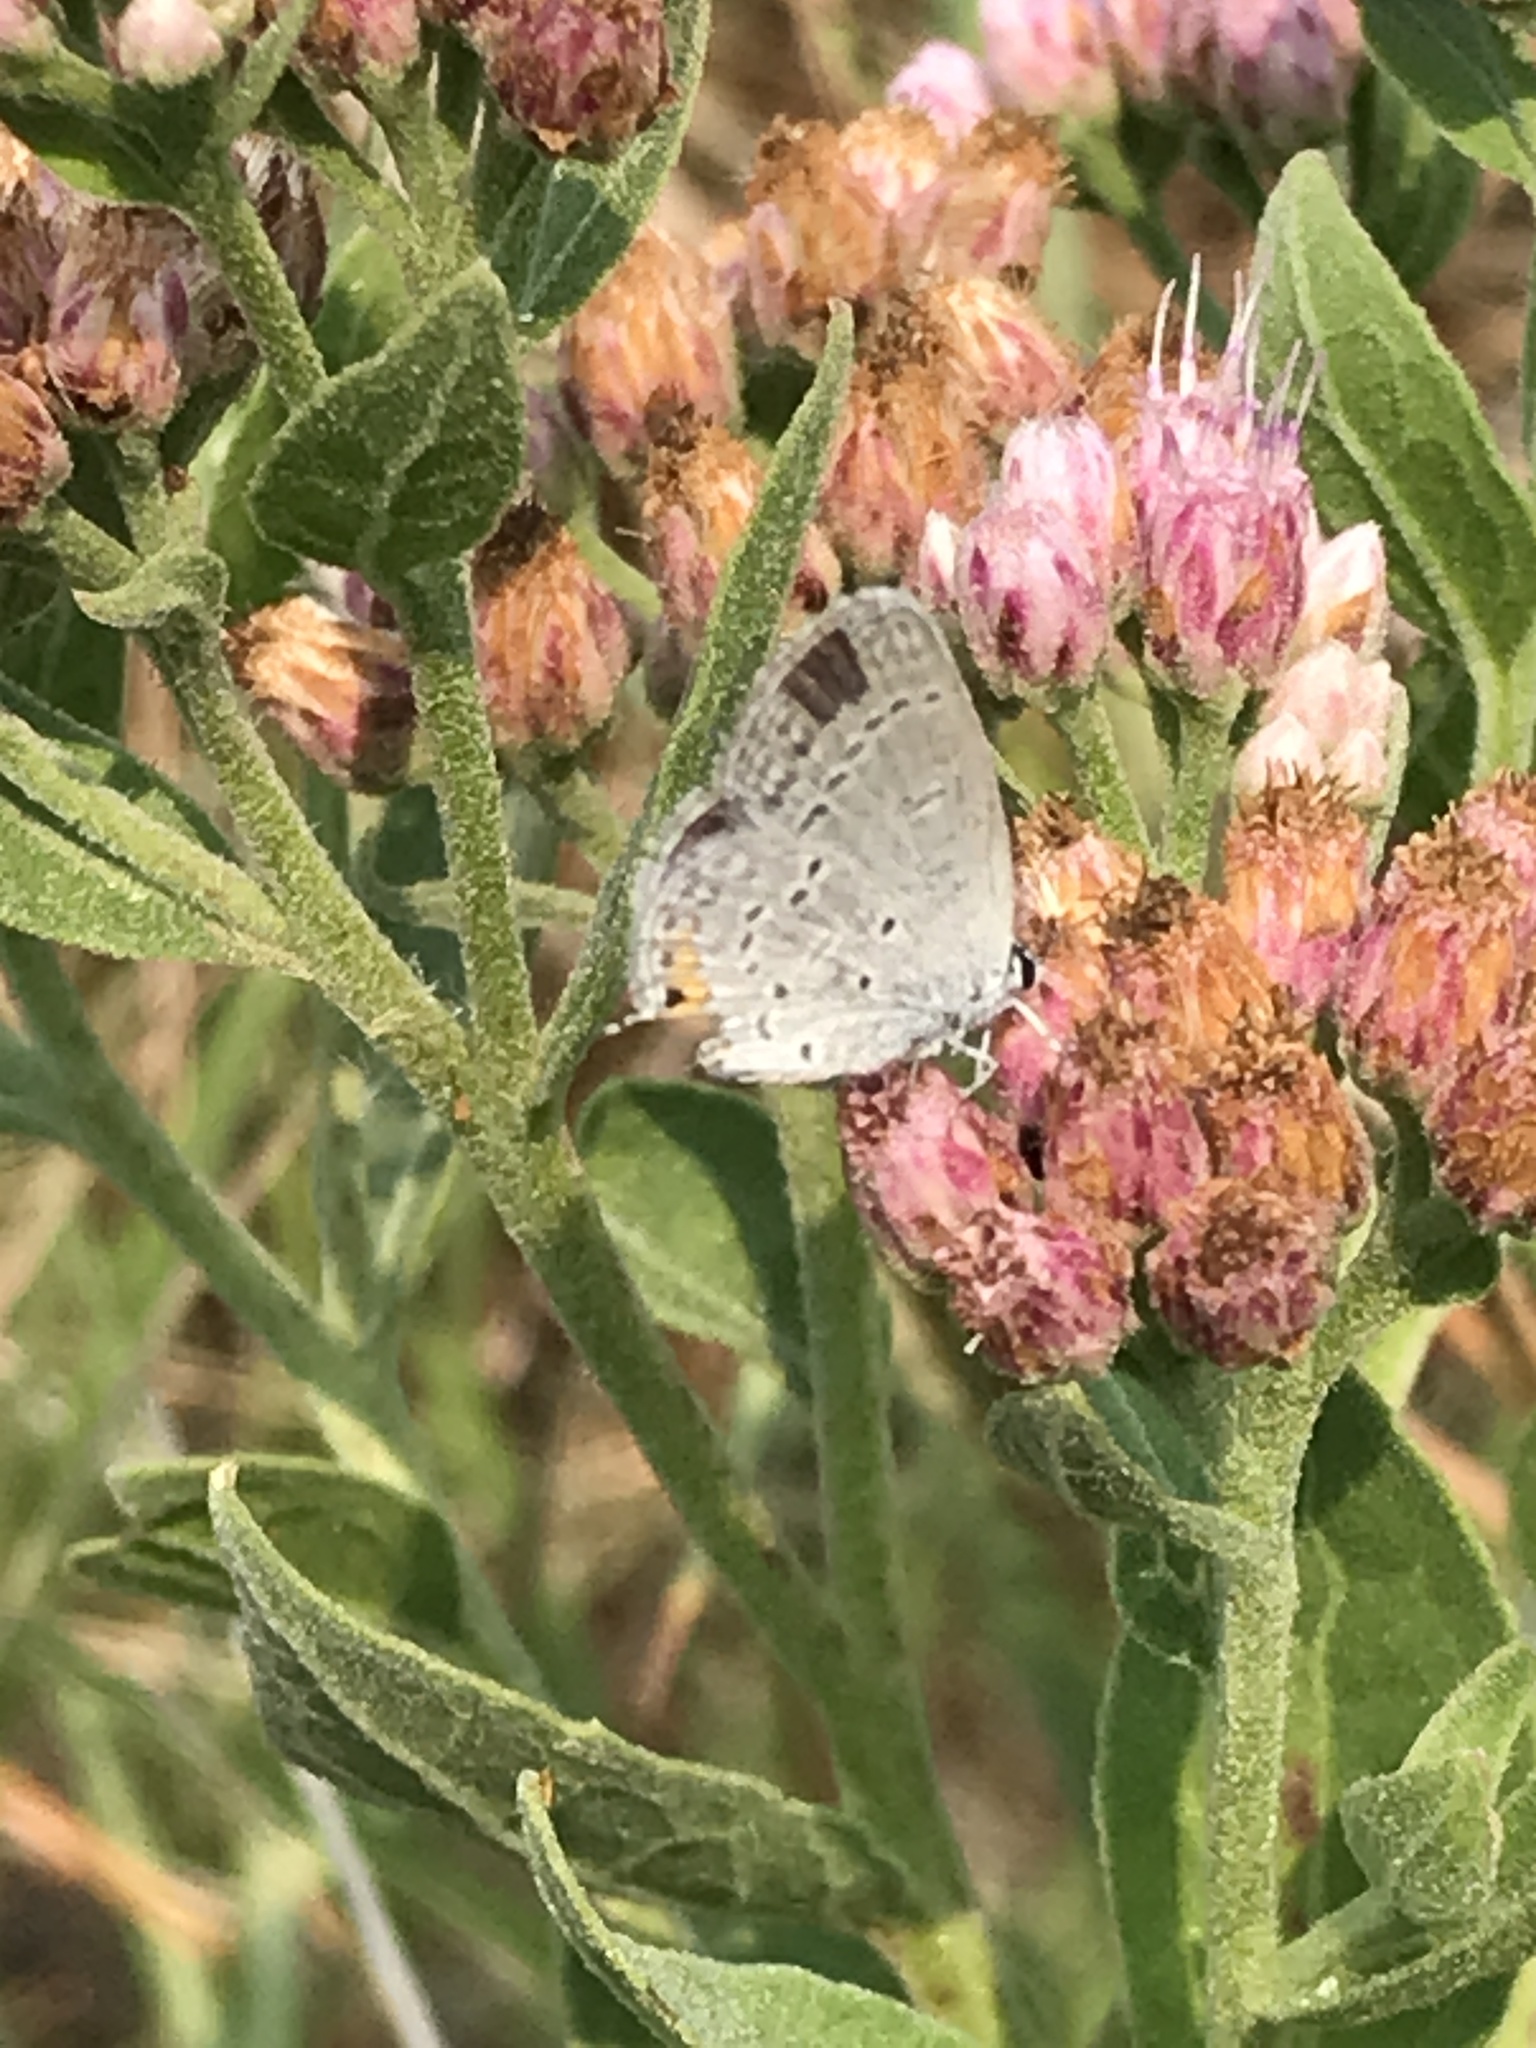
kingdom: Animalia
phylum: Arthropoda
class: Insecta
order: Lepidoptera
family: Lycaenidae
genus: Elkalyce
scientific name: Elkalyce comyntas
